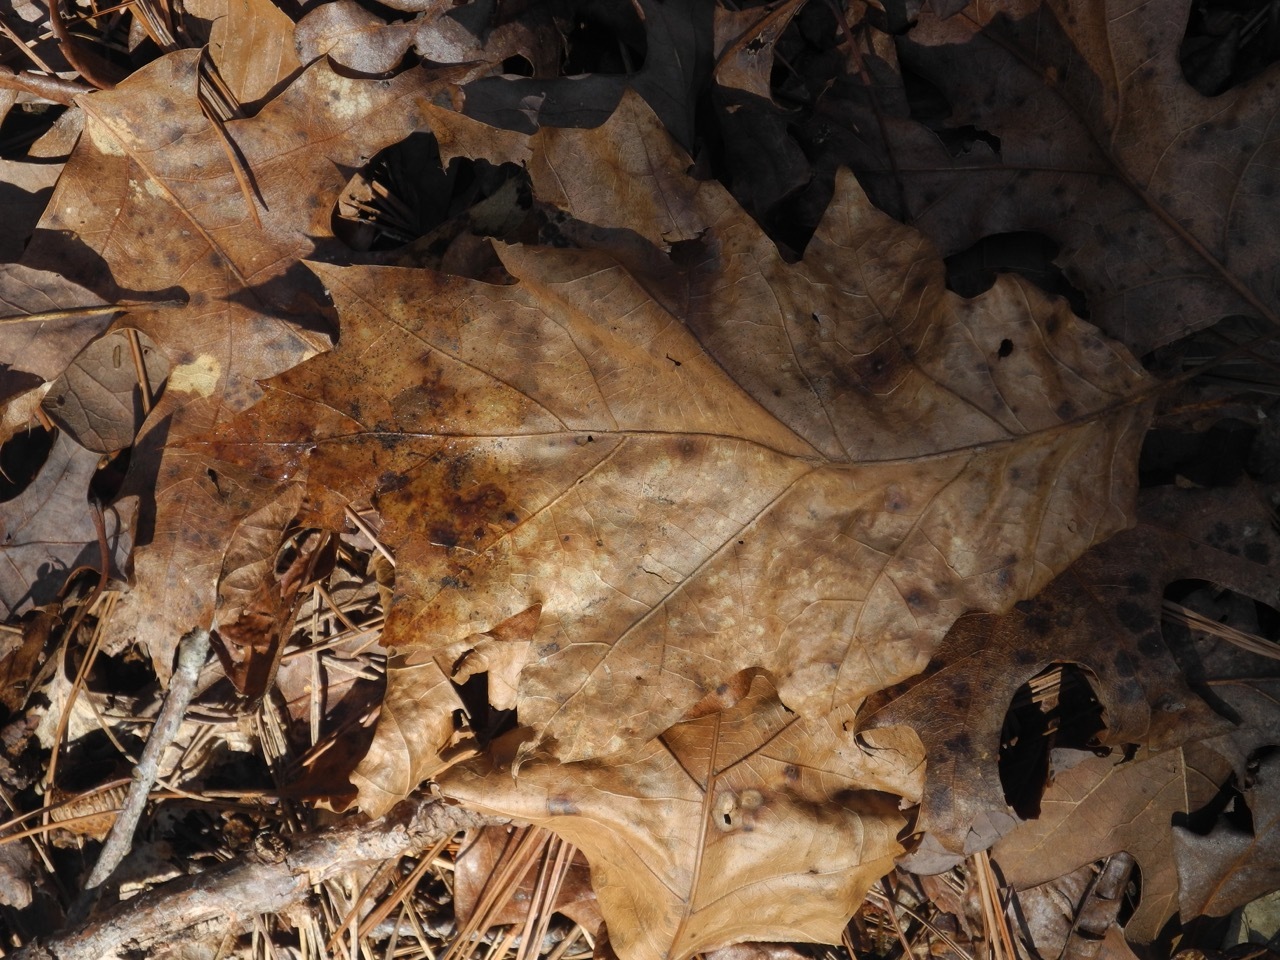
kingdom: Plantae
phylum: Tracheophyta
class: Magnoliopsida
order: Fagales
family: Fagaceae
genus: Quercus
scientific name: Quercus rubra
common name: Red oak
